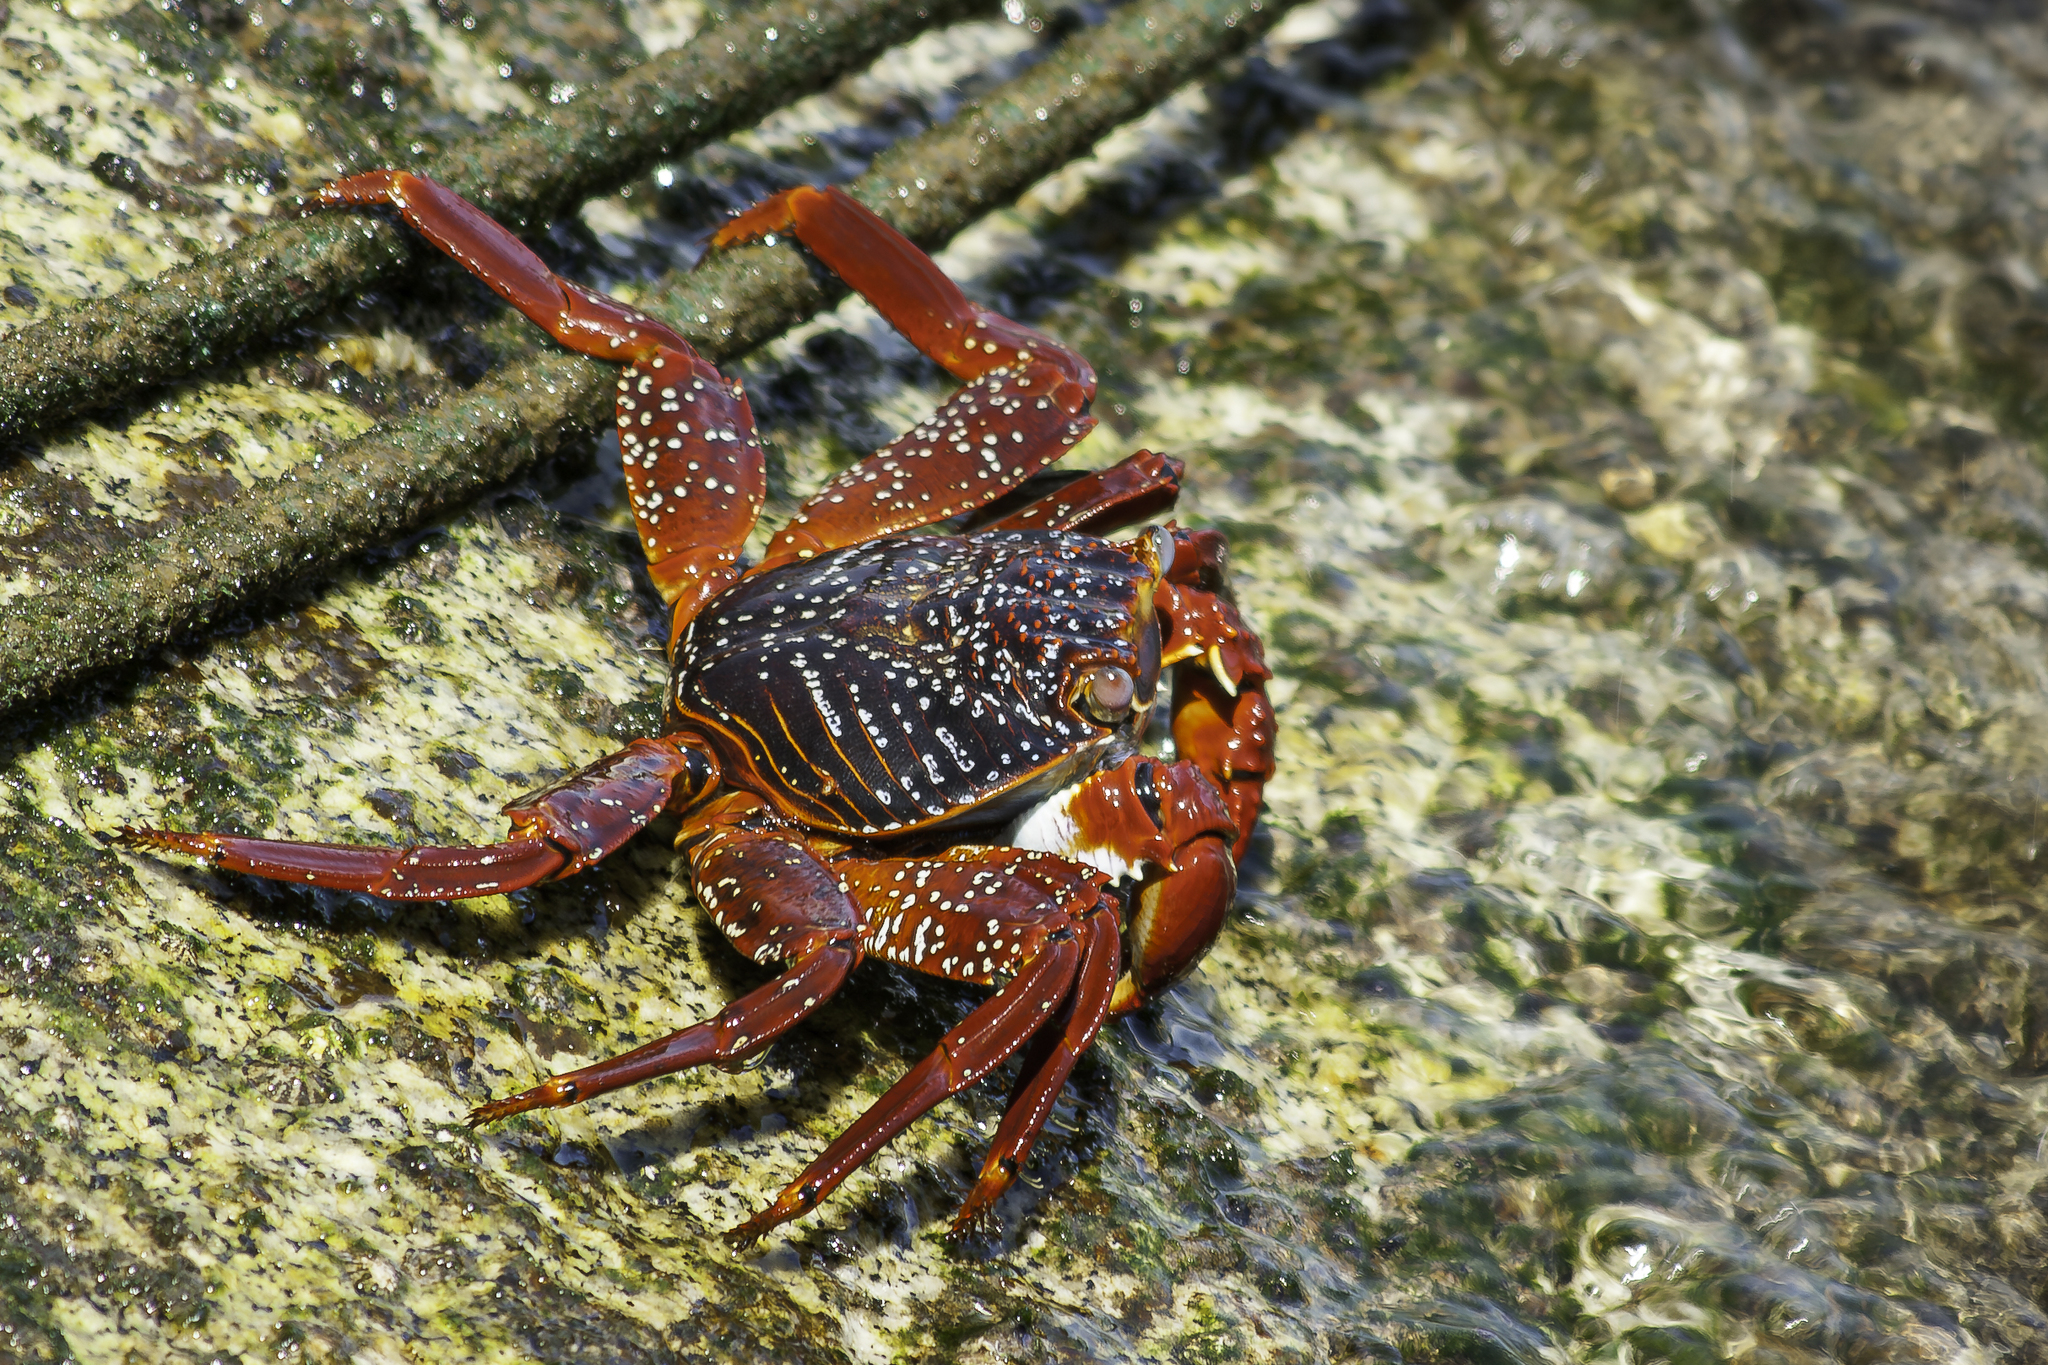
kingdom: Animalia
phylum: Arthropoda
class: Malacostraca
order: Decapoda
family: Grapsidae
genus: Grapsus
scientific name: Grapsus grapsus
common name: Sally lightfoot
